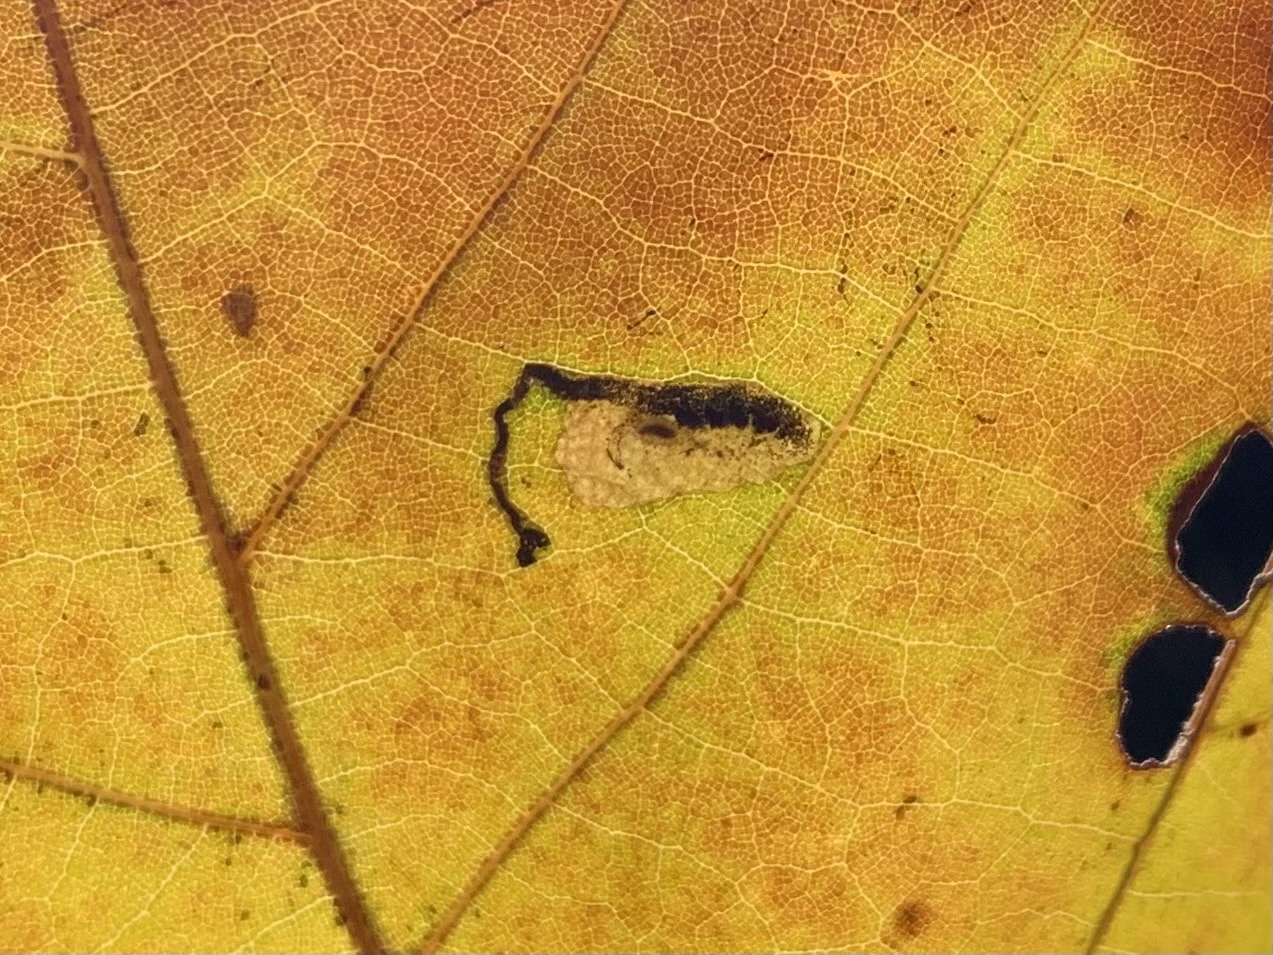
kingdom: Animalia
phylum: Arthropoda
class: Insecta
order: Lepidoptera
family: Nepticulidae
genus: Ectoedemia
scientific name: Ectoedemia clemensella
